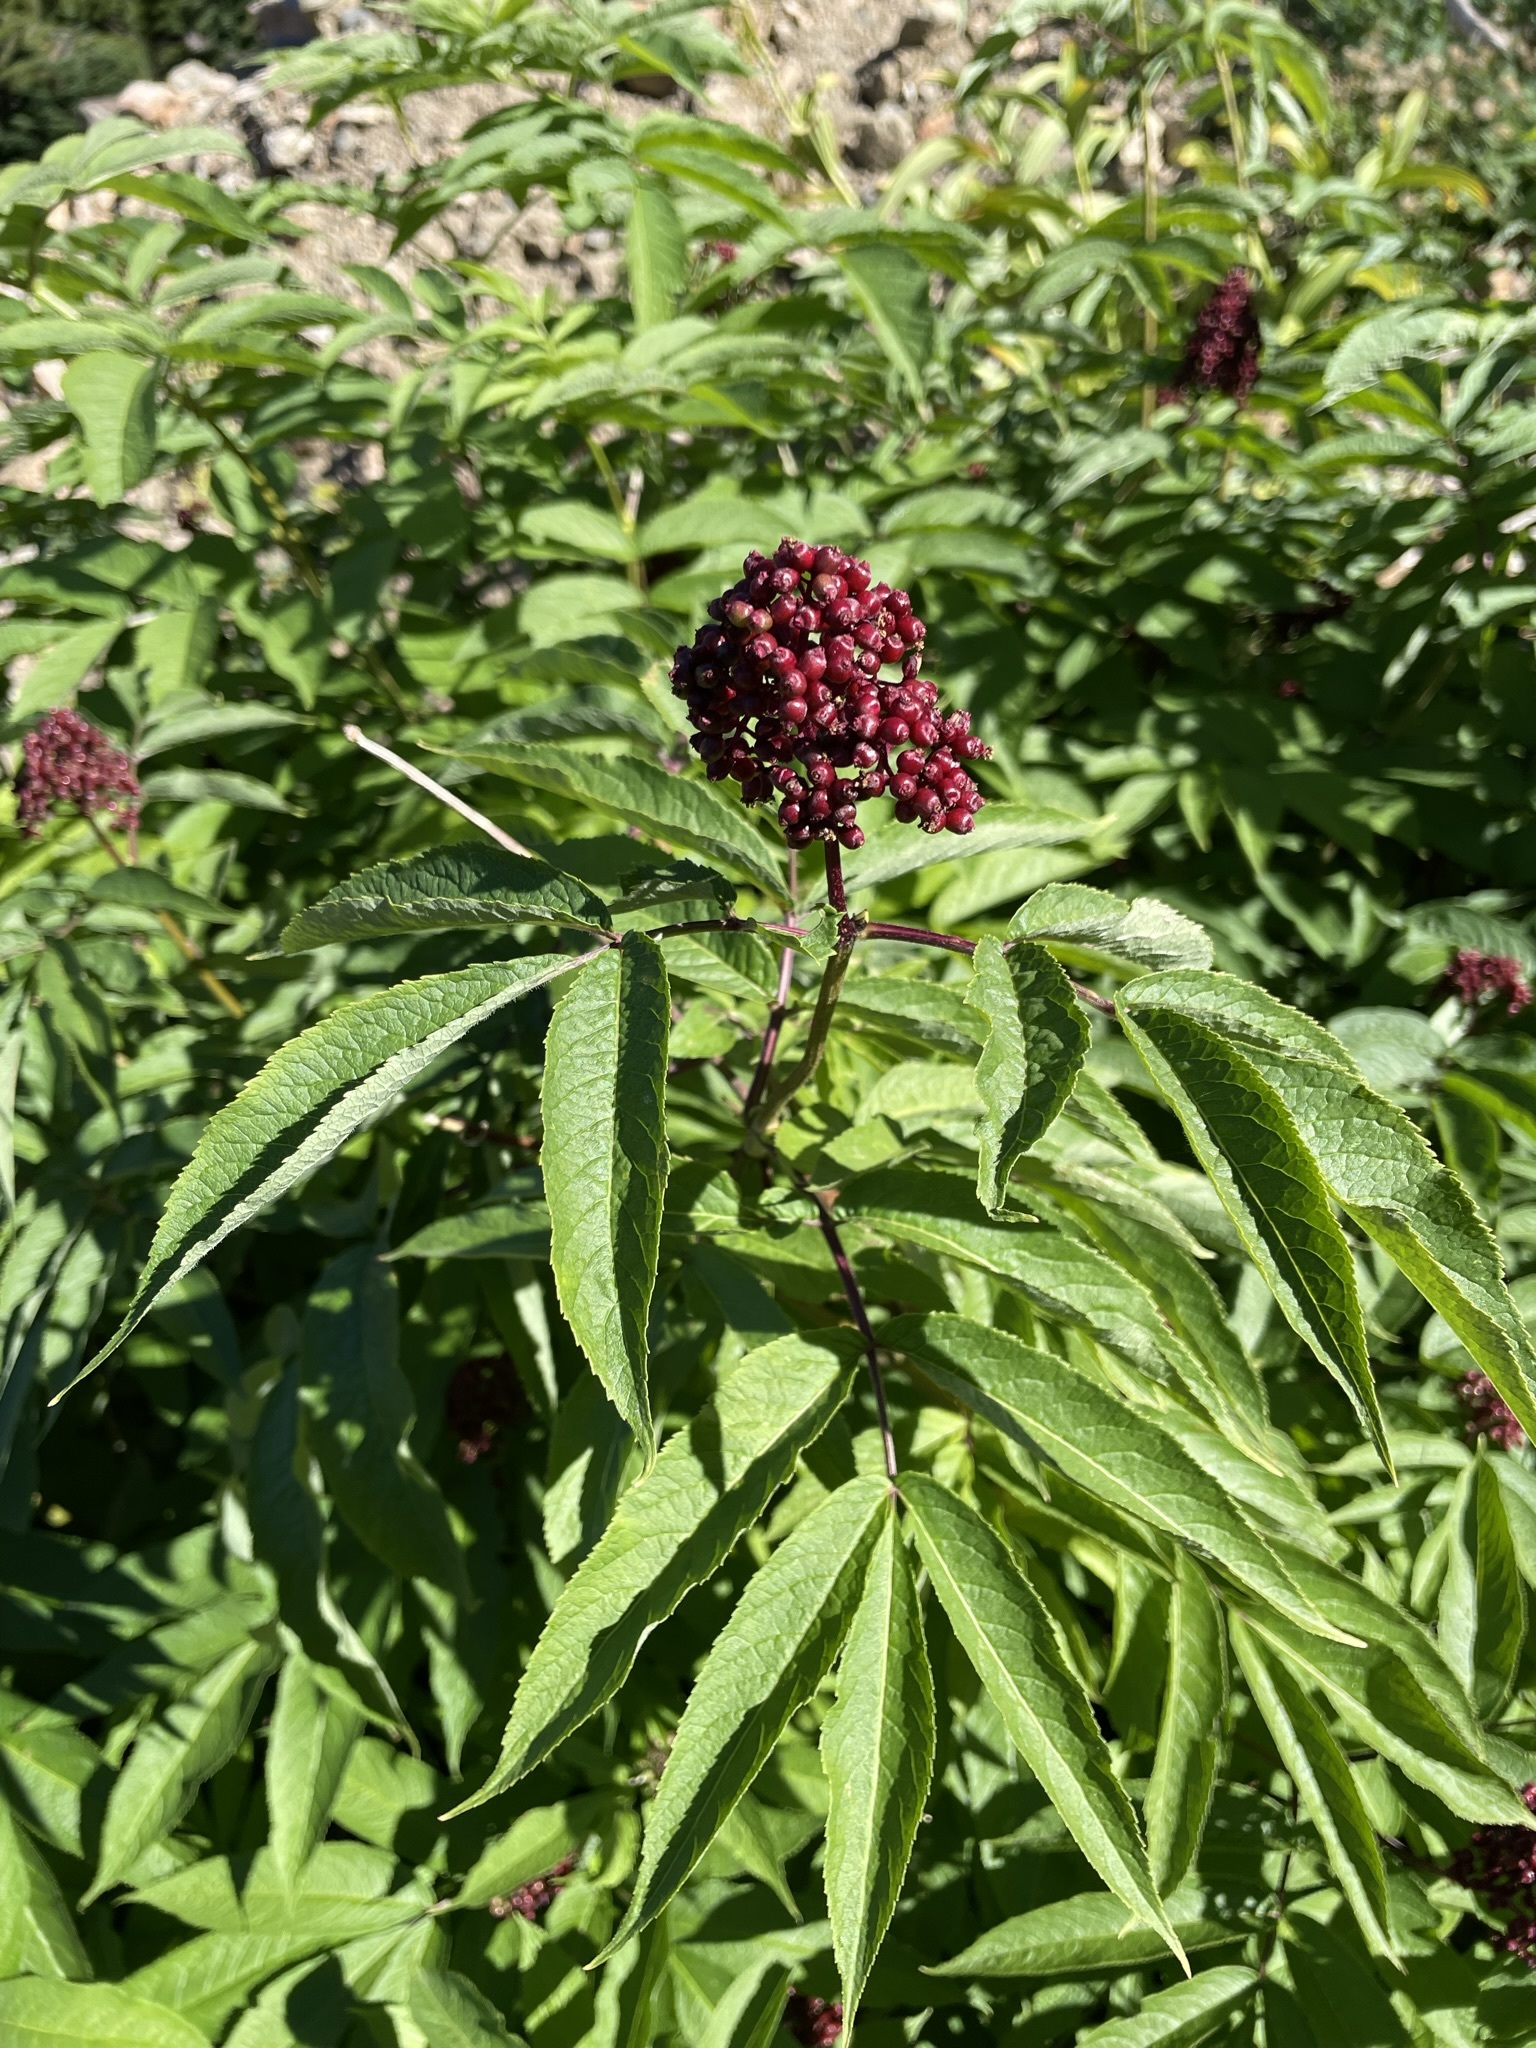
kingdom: Plantae
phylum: Tracheophyta
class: Magnoliopsida
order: Dipsacales
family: Viburnaceae
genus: Sambucus
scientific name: Sambucus racemosa
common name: Red-berried elder
